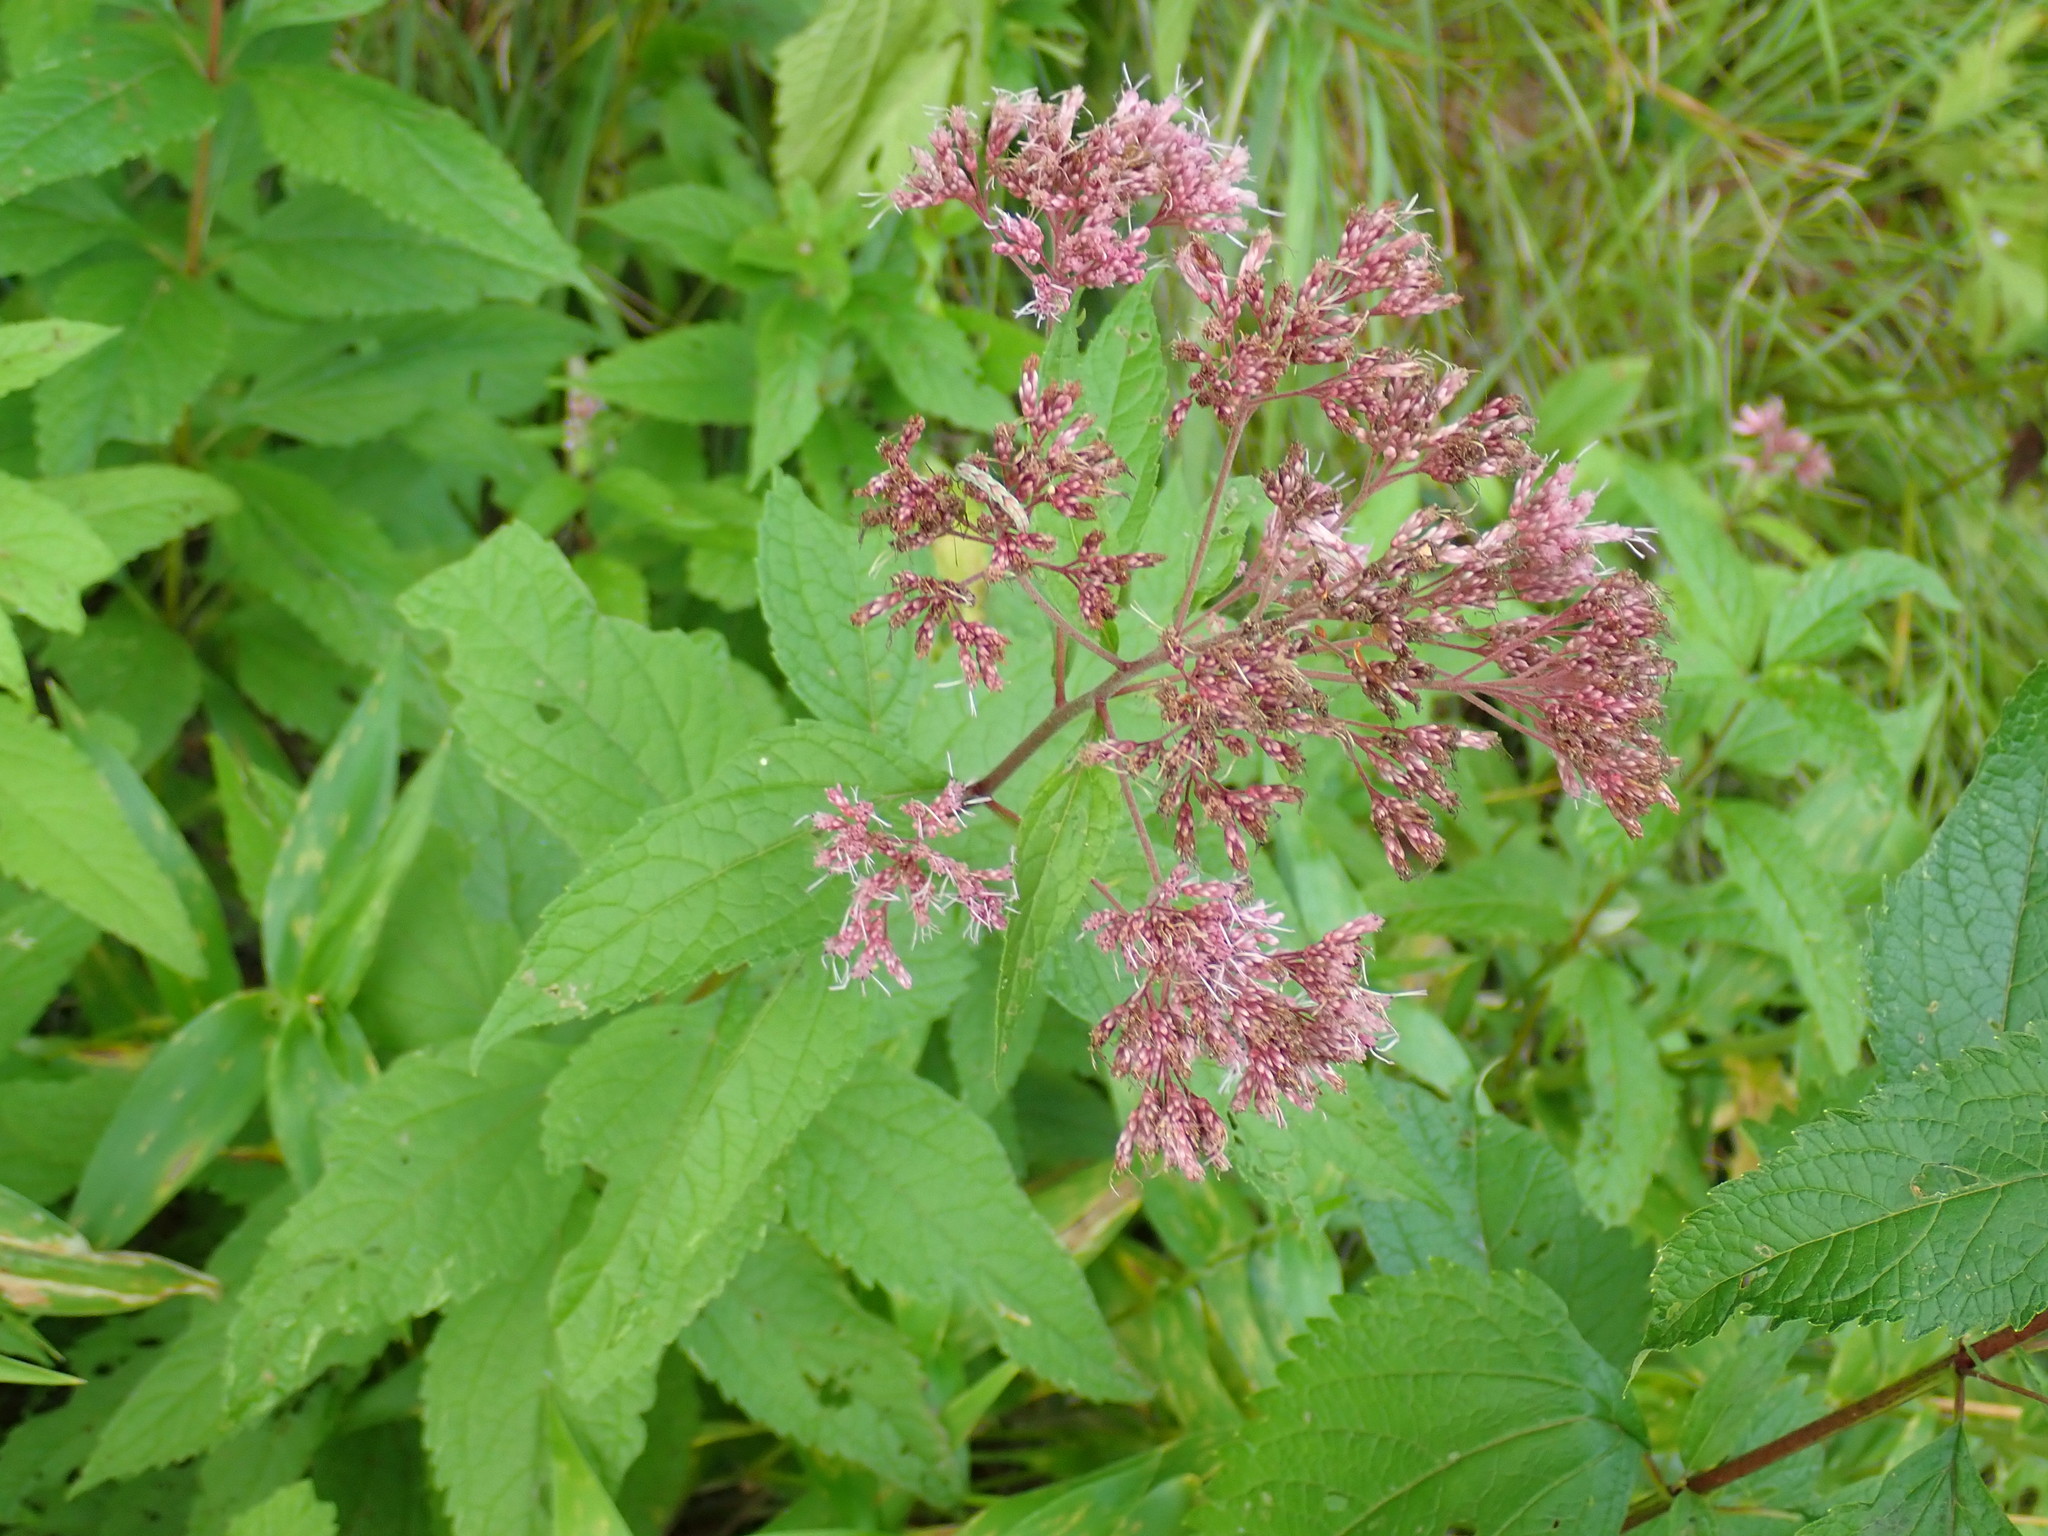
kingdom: Plantae
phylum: Tracheophyta
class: Magnoliopsida
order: Asterales
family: Asteraceae
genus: Eutrochium
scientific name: Eutrochium
